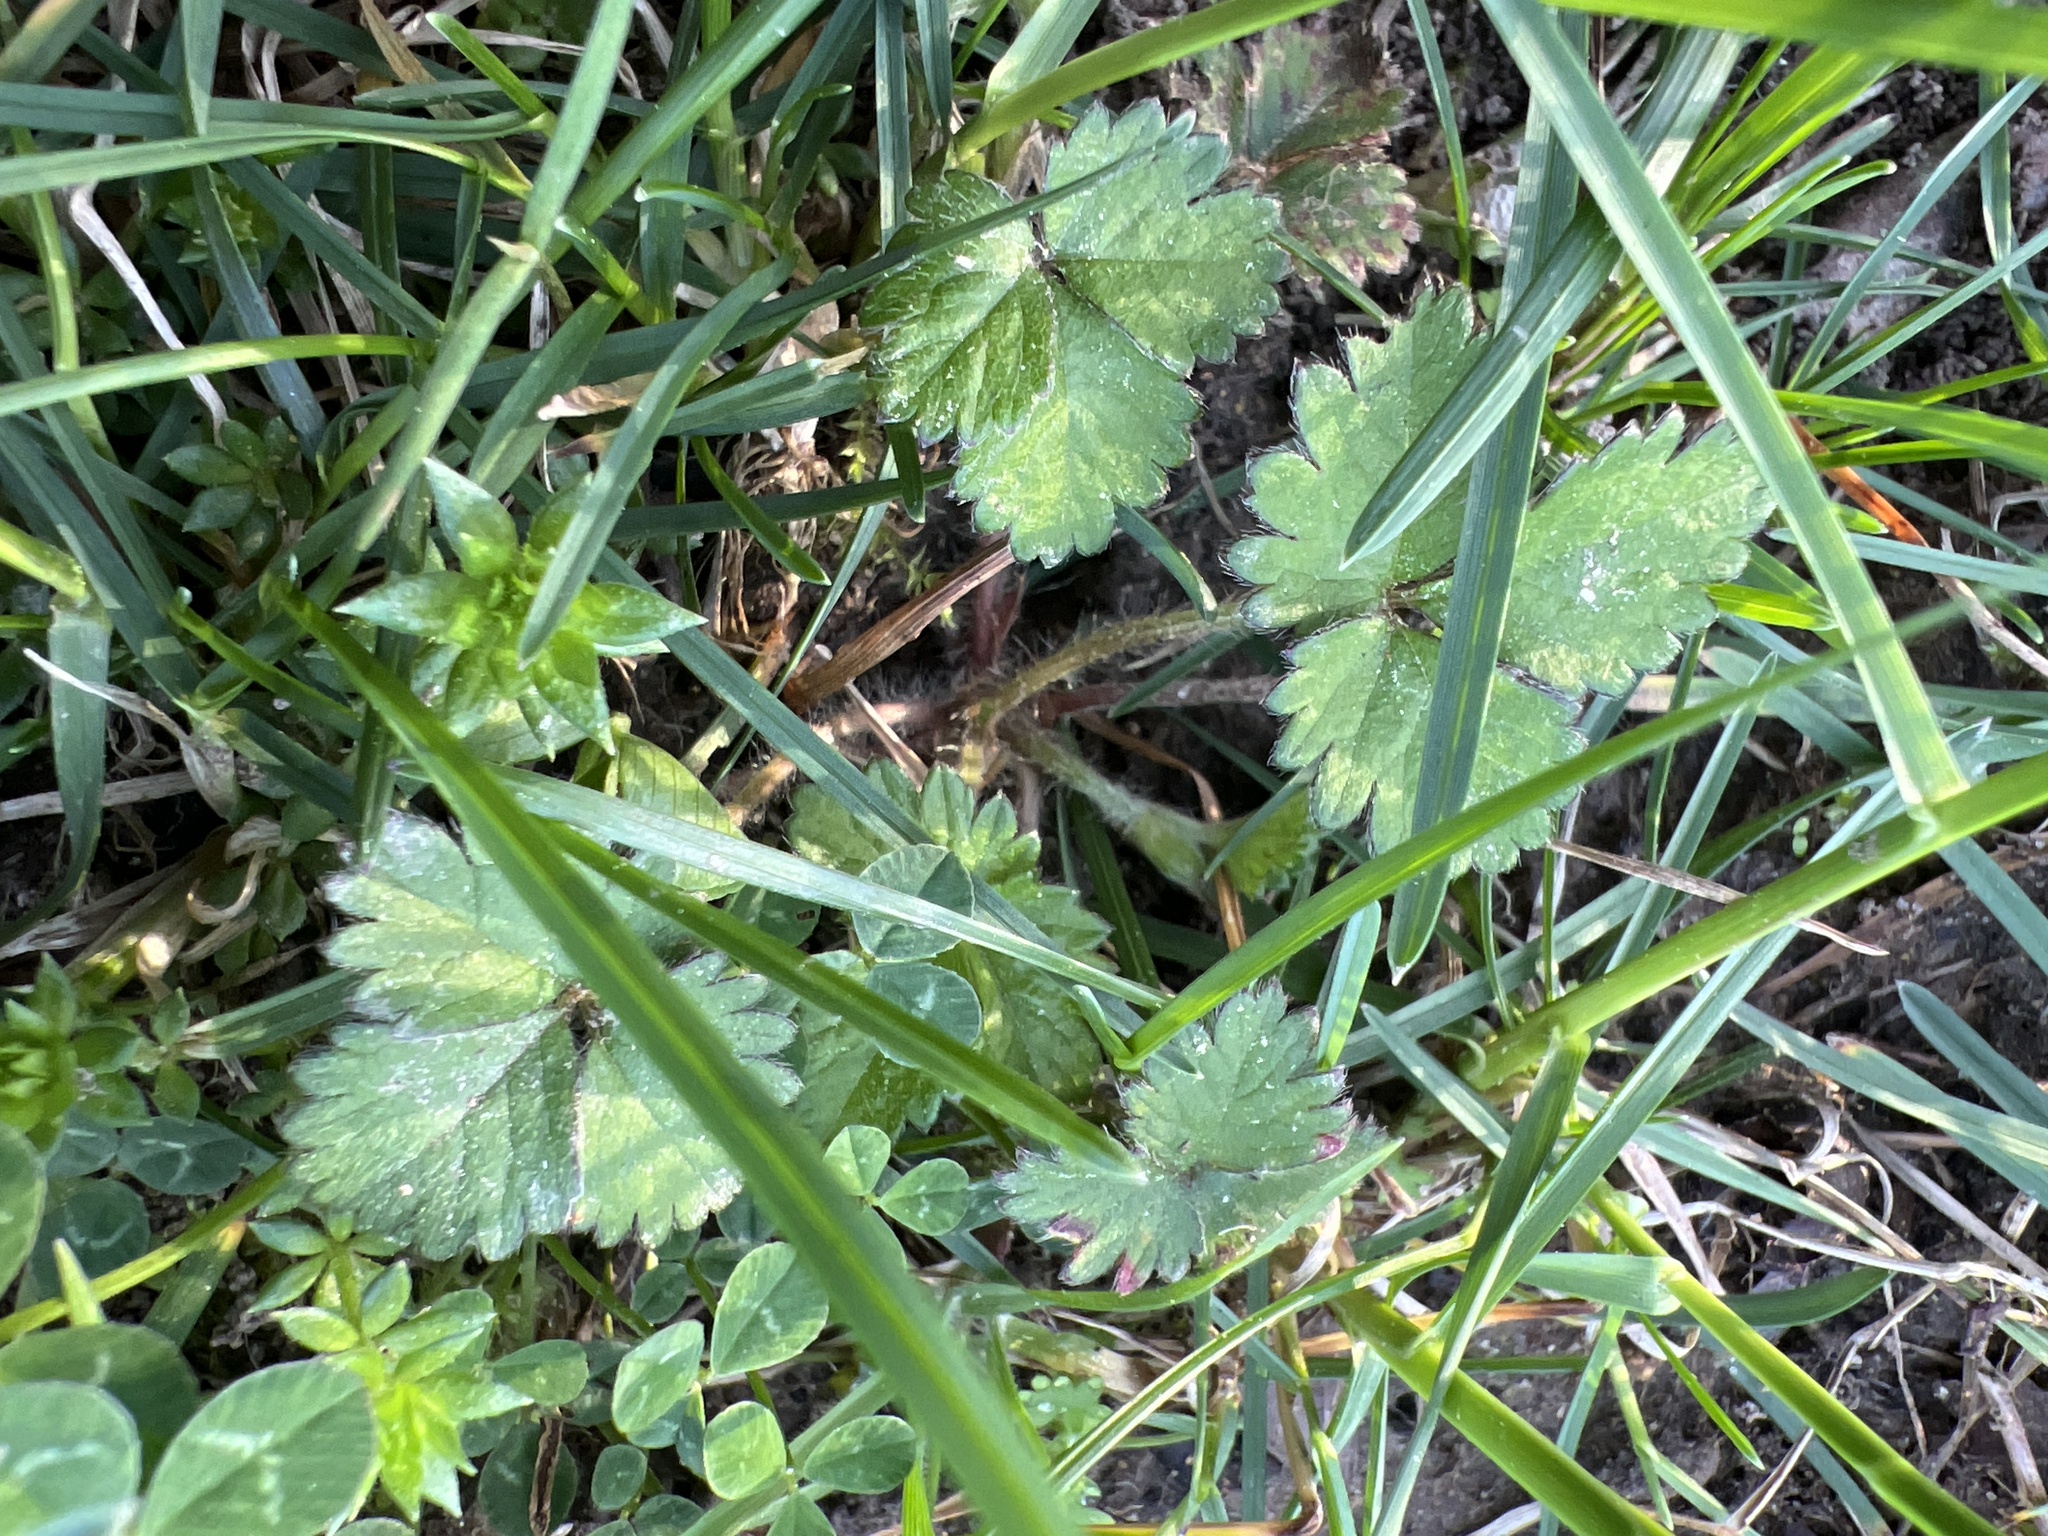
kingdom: Plantae
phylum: Tracheophyta
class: Magnoliopsida
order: Rosales
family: Rosaceae
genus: Potentilla
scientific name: Potentilla indica
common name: Yellow-flowered strawberry
